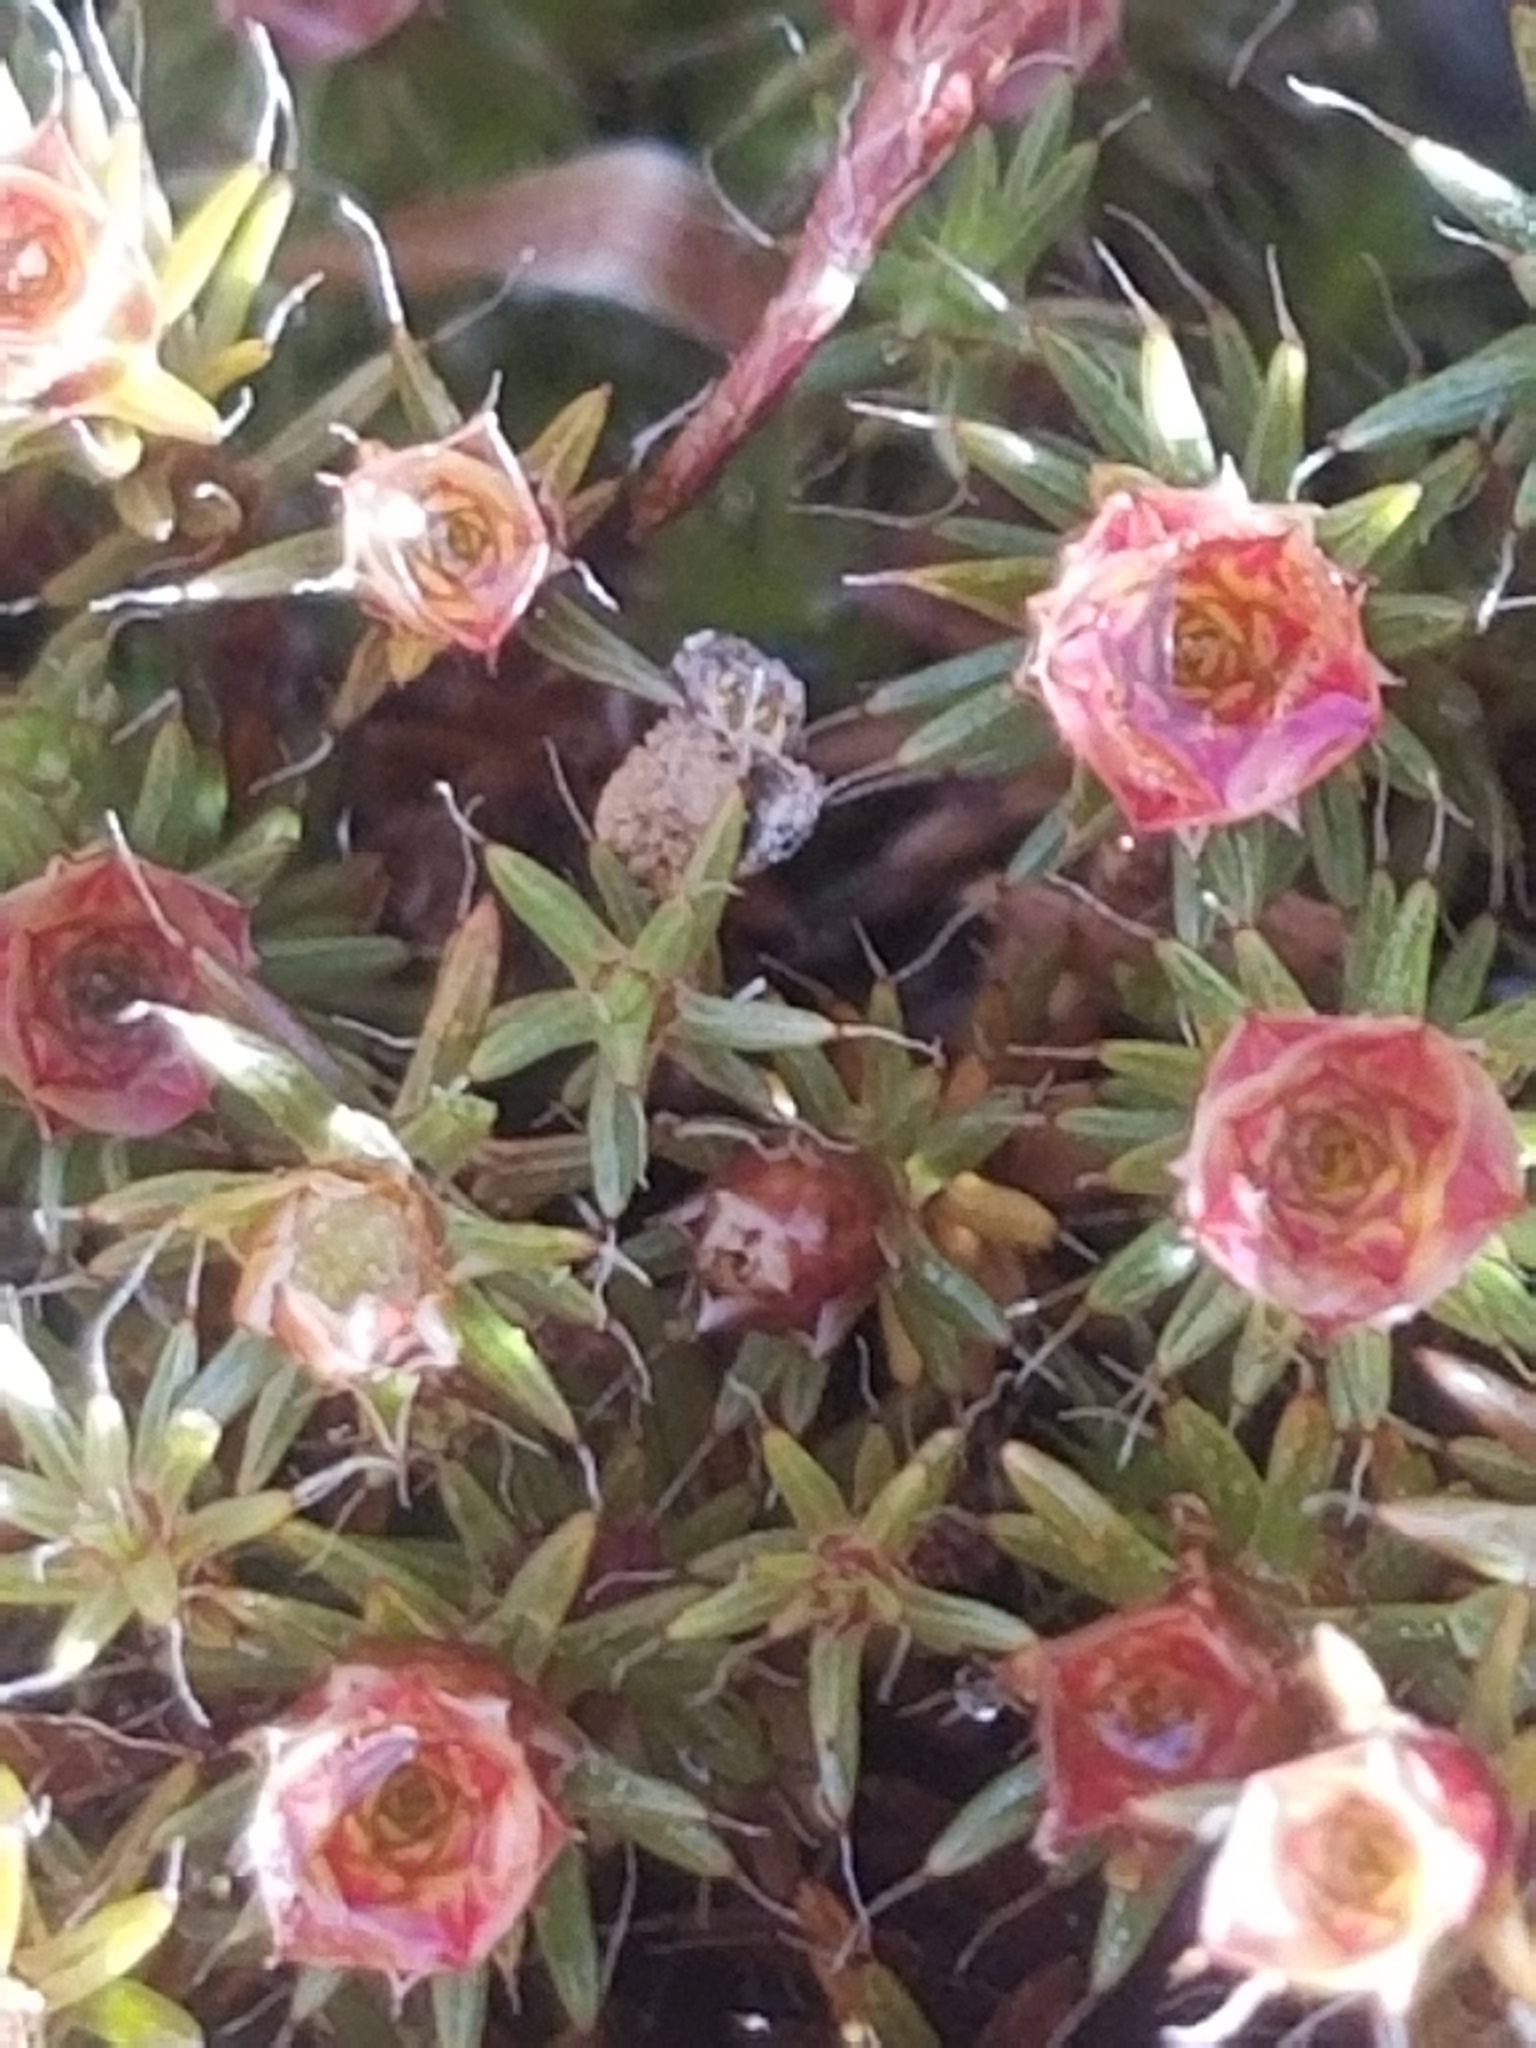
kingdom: Plantae
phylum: Bryophyta
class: Polytrichopsida
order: Polytrichales
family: Polytrichaceae
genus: Polytrichum
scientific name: Polytrichum piliferum
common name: Bristly haircap
